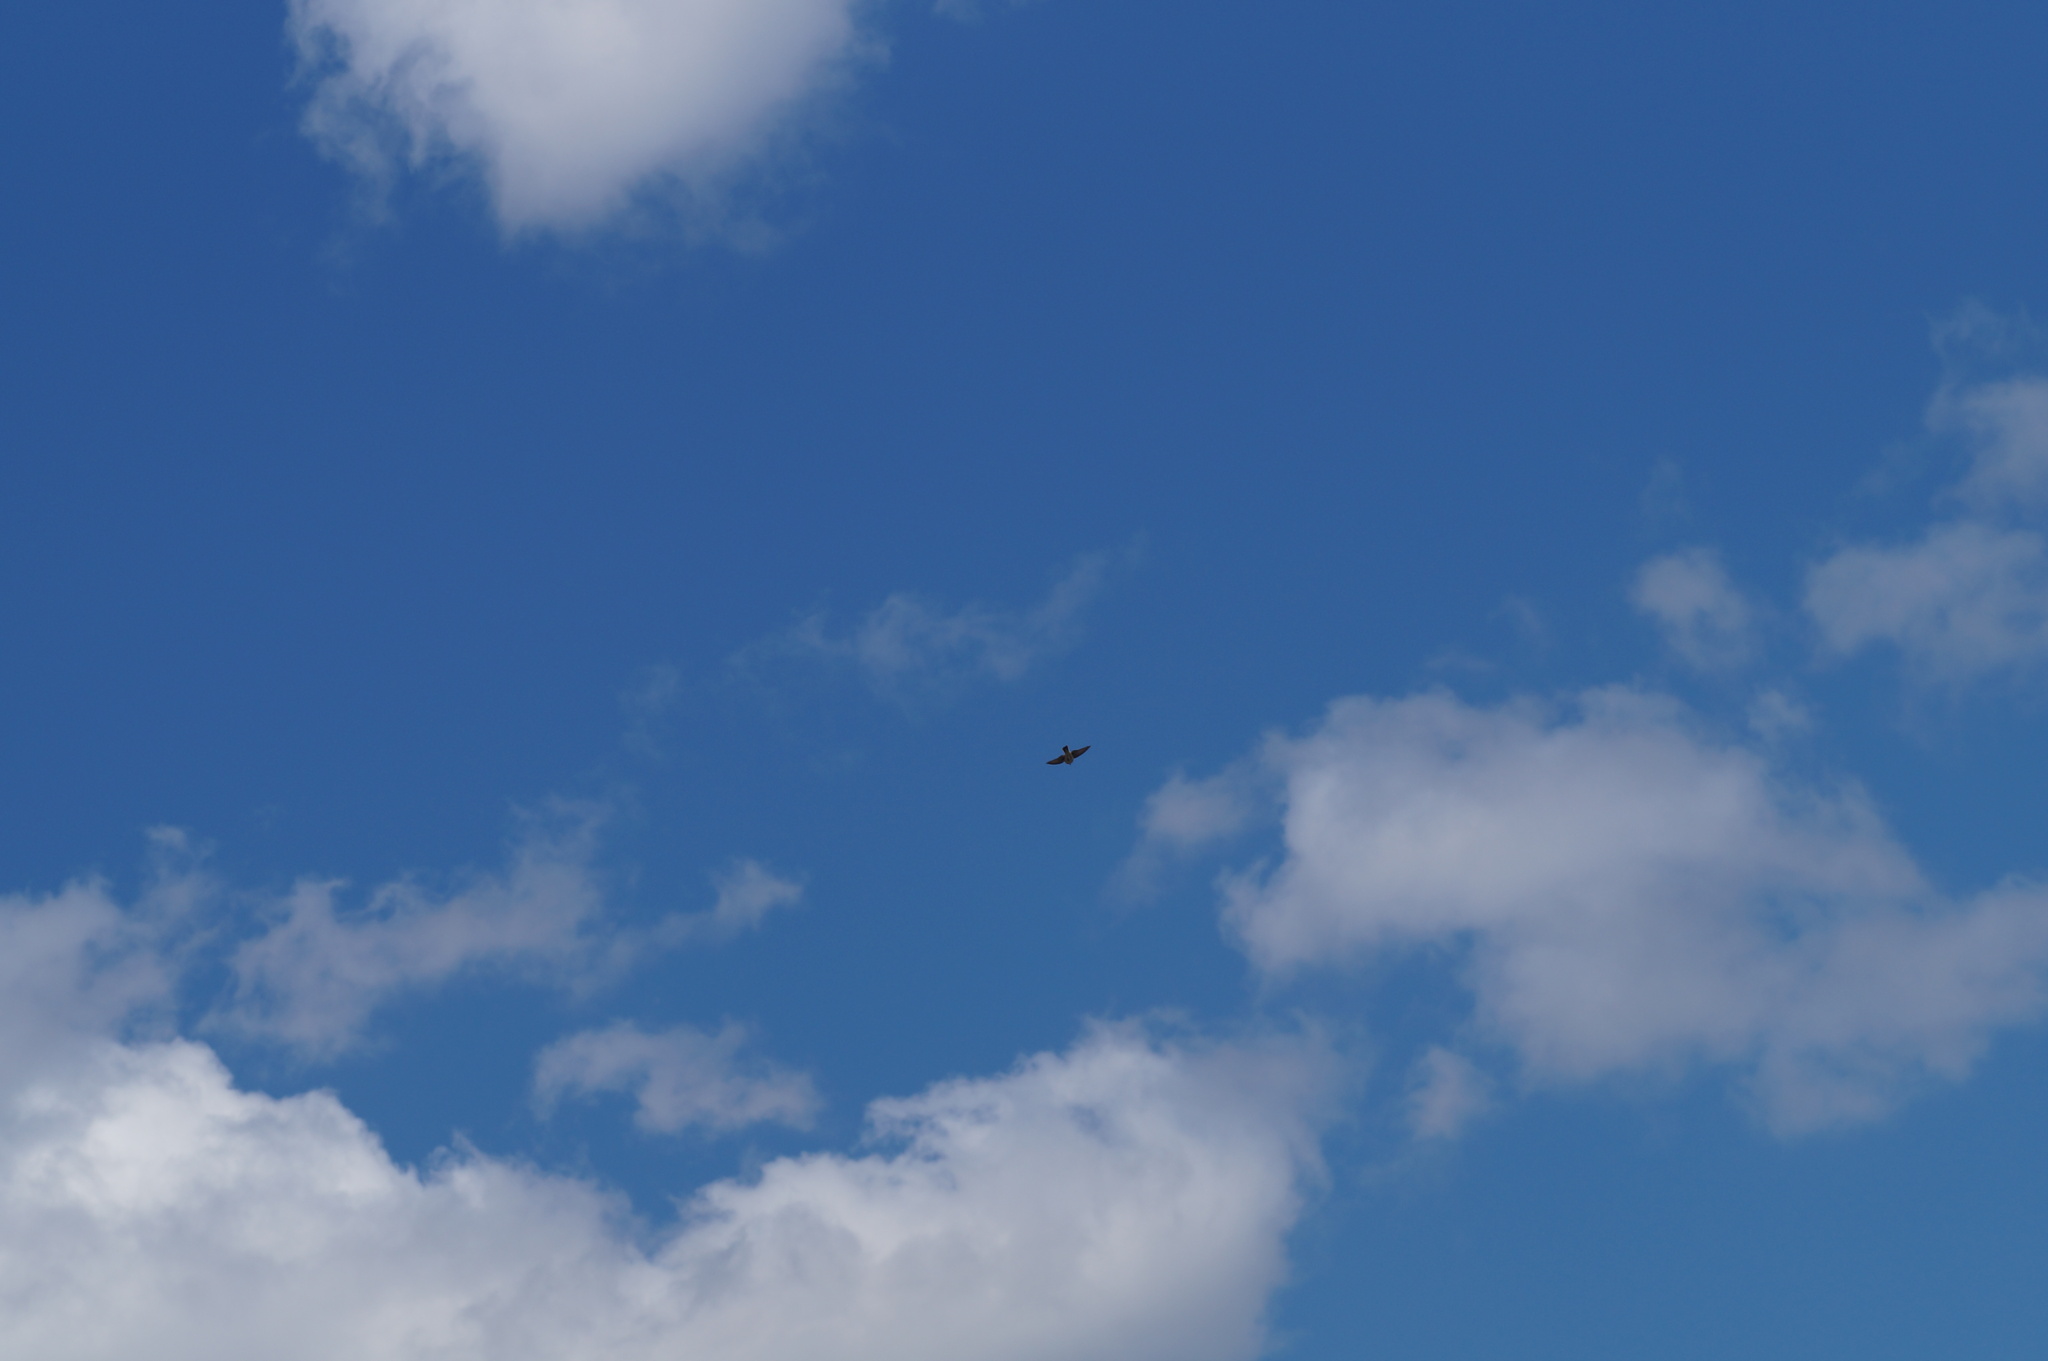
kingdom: Animalia
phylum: Chordata
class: Aves
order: Passeriformes
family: Alaudidae
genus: Alauda
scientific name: Alauda arvensis
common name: Eurasian skylark
